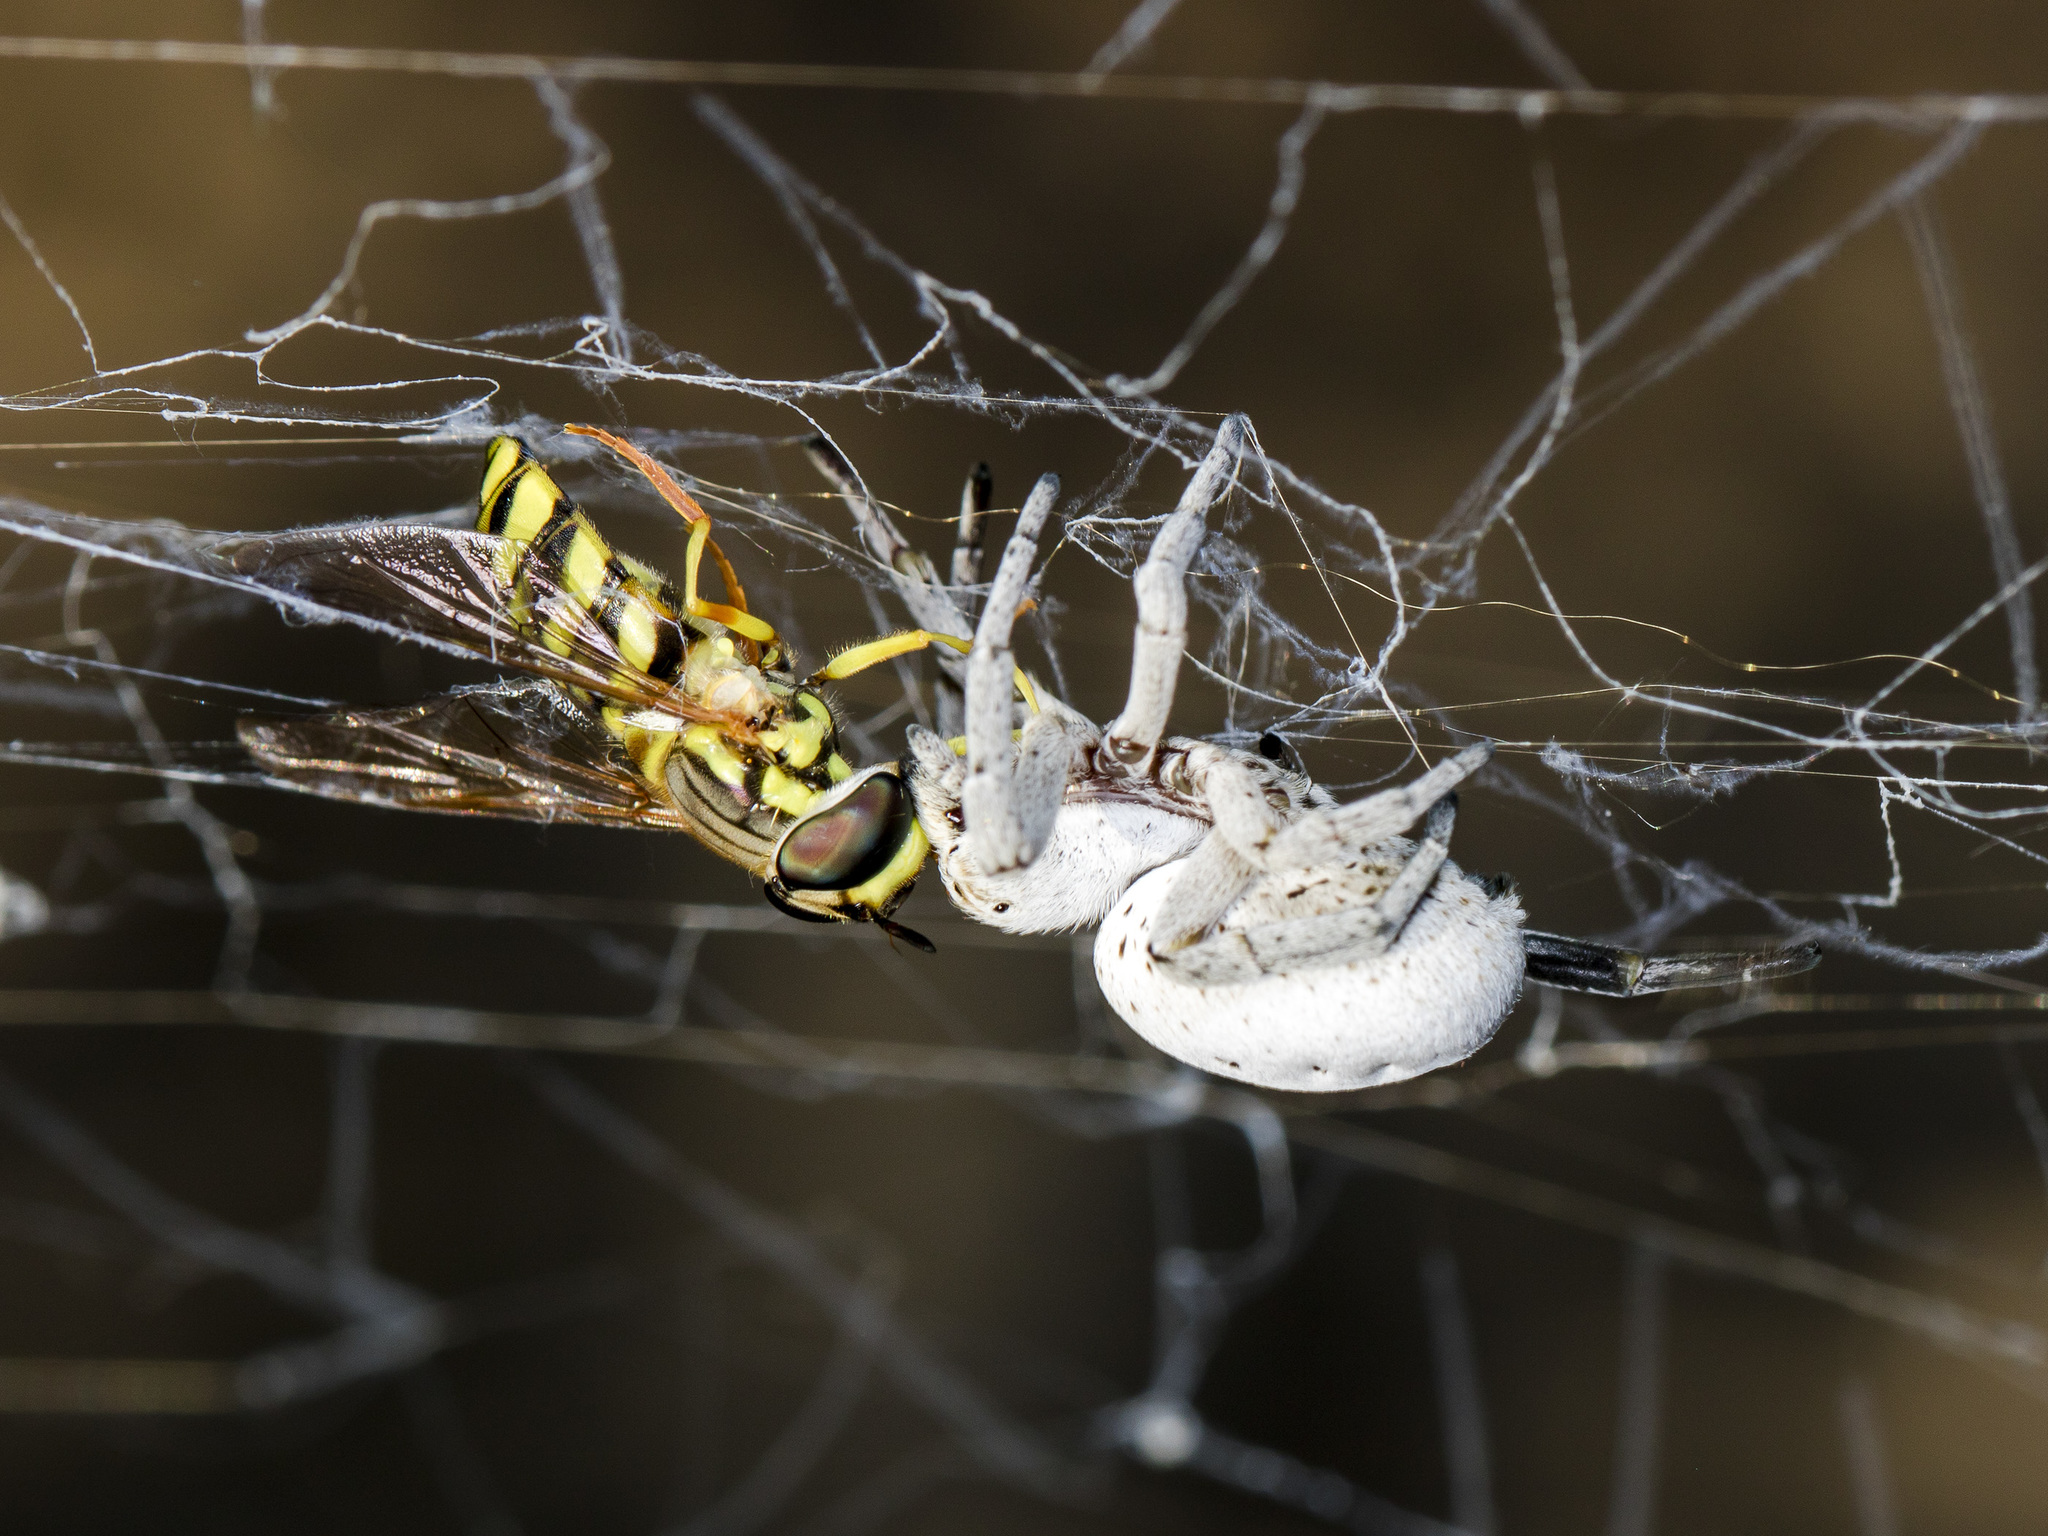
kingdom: Animalia
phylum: Arthropoda
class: Arachnida
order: Araneae
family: Eresidae
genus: Stegodyphus
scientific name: Stegodyphus lineatus
